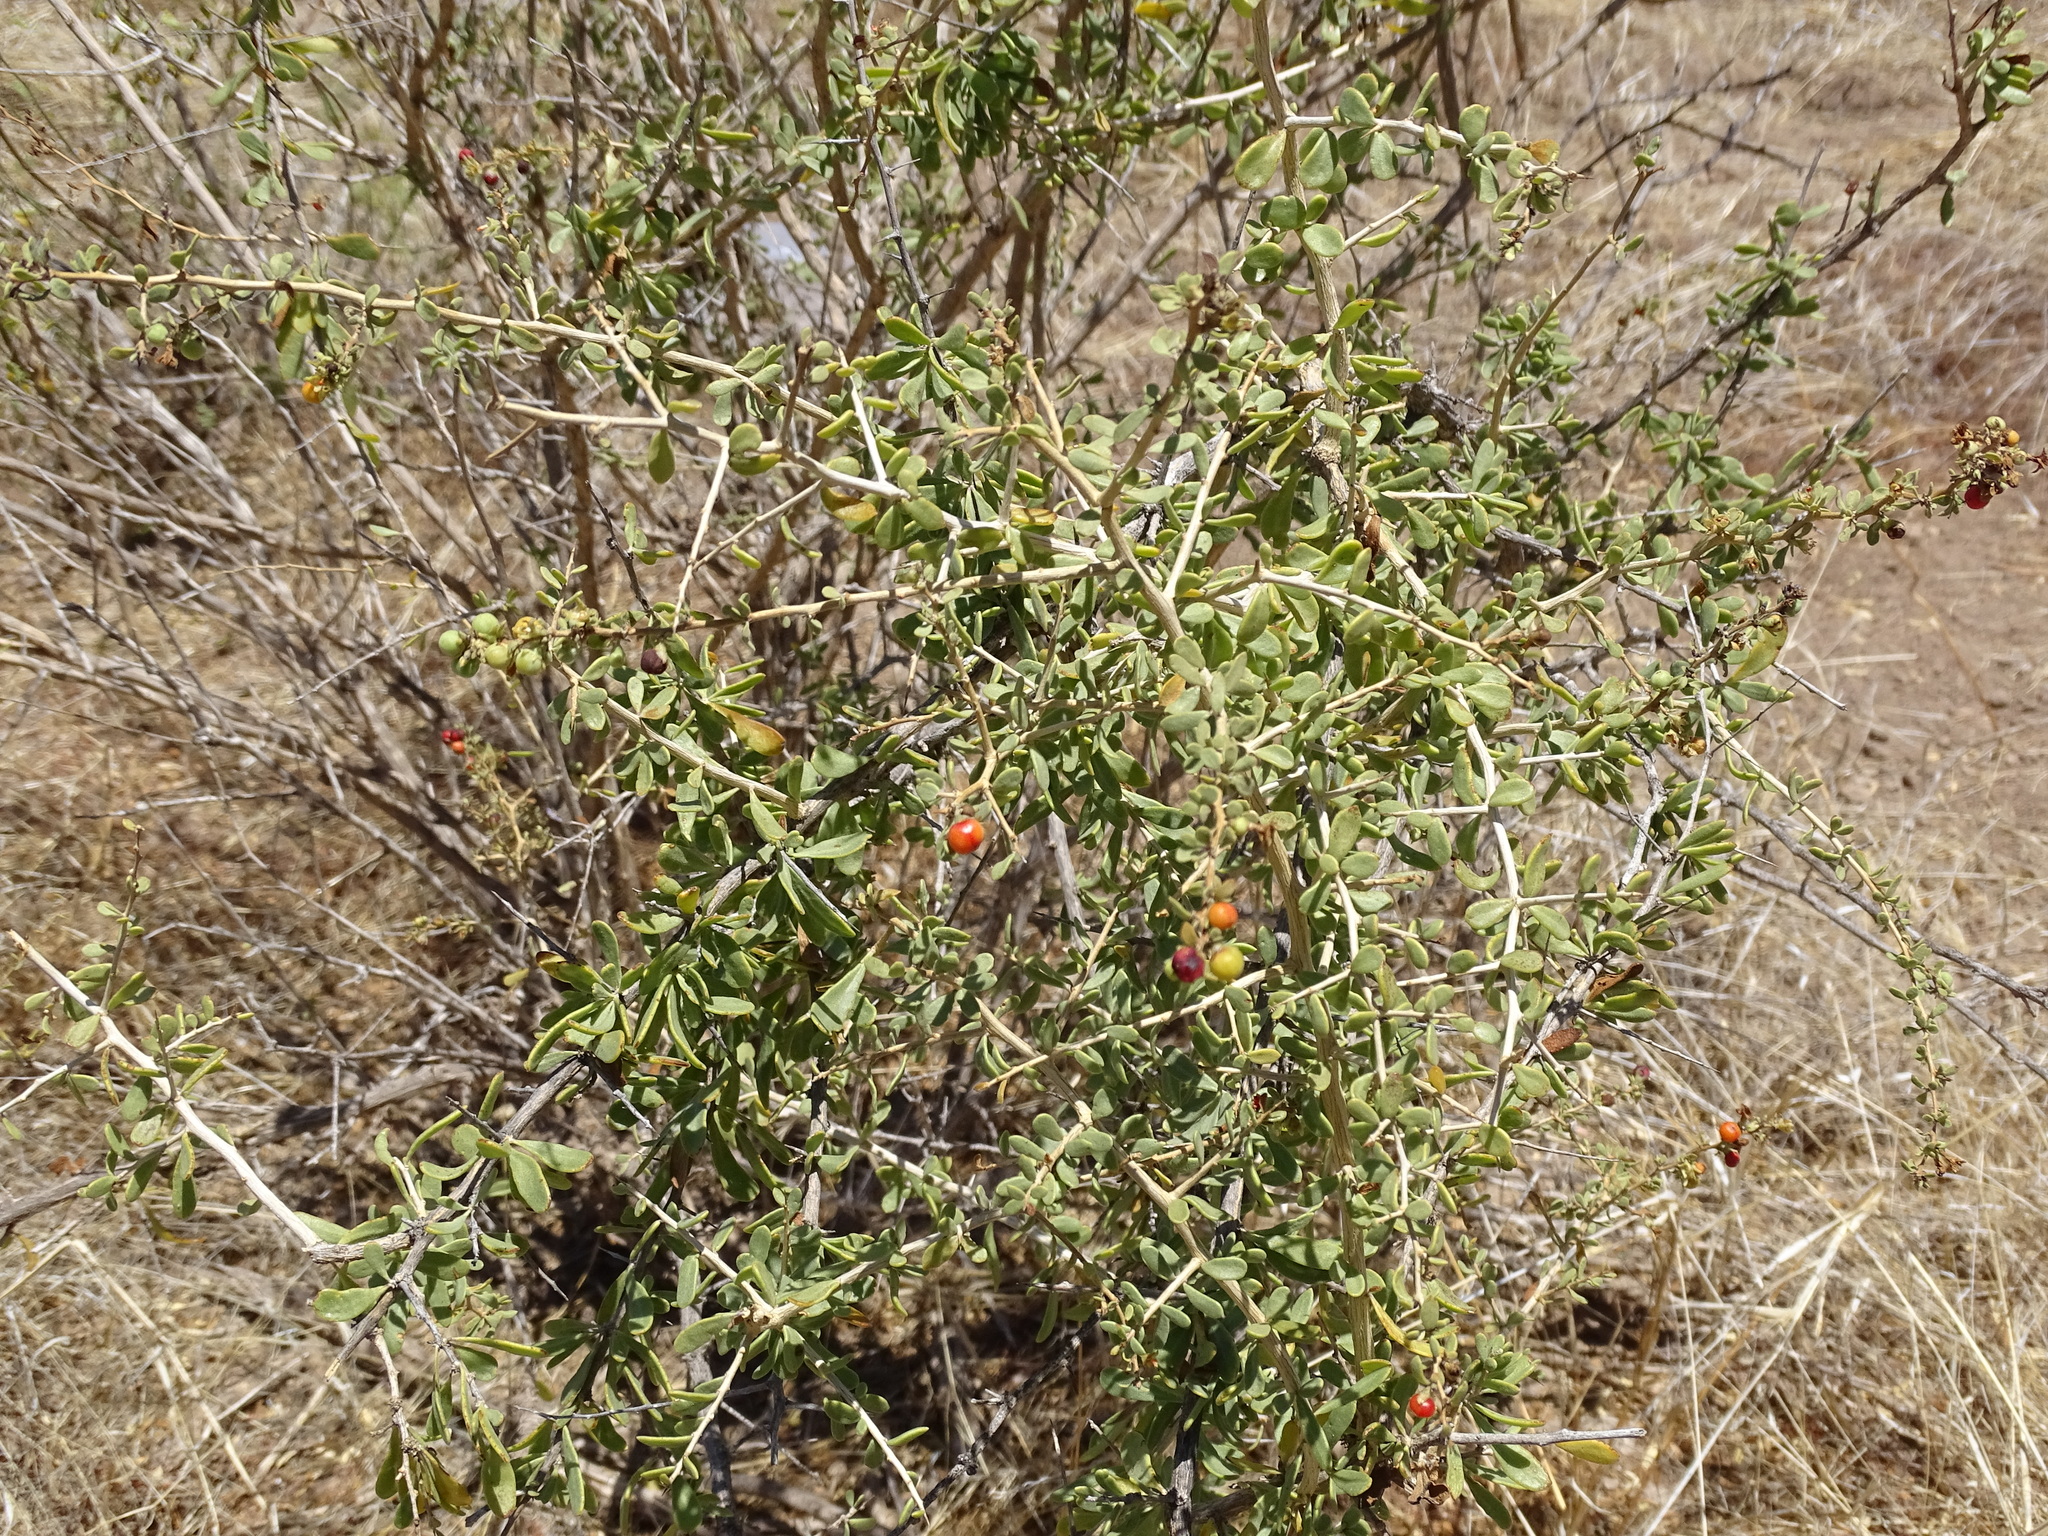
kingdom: Plantae
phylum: Tracheophyta
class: Magnoliopsida
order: Solanales
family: Solanaceae
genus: Lycium
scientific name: Lycium brevipes
